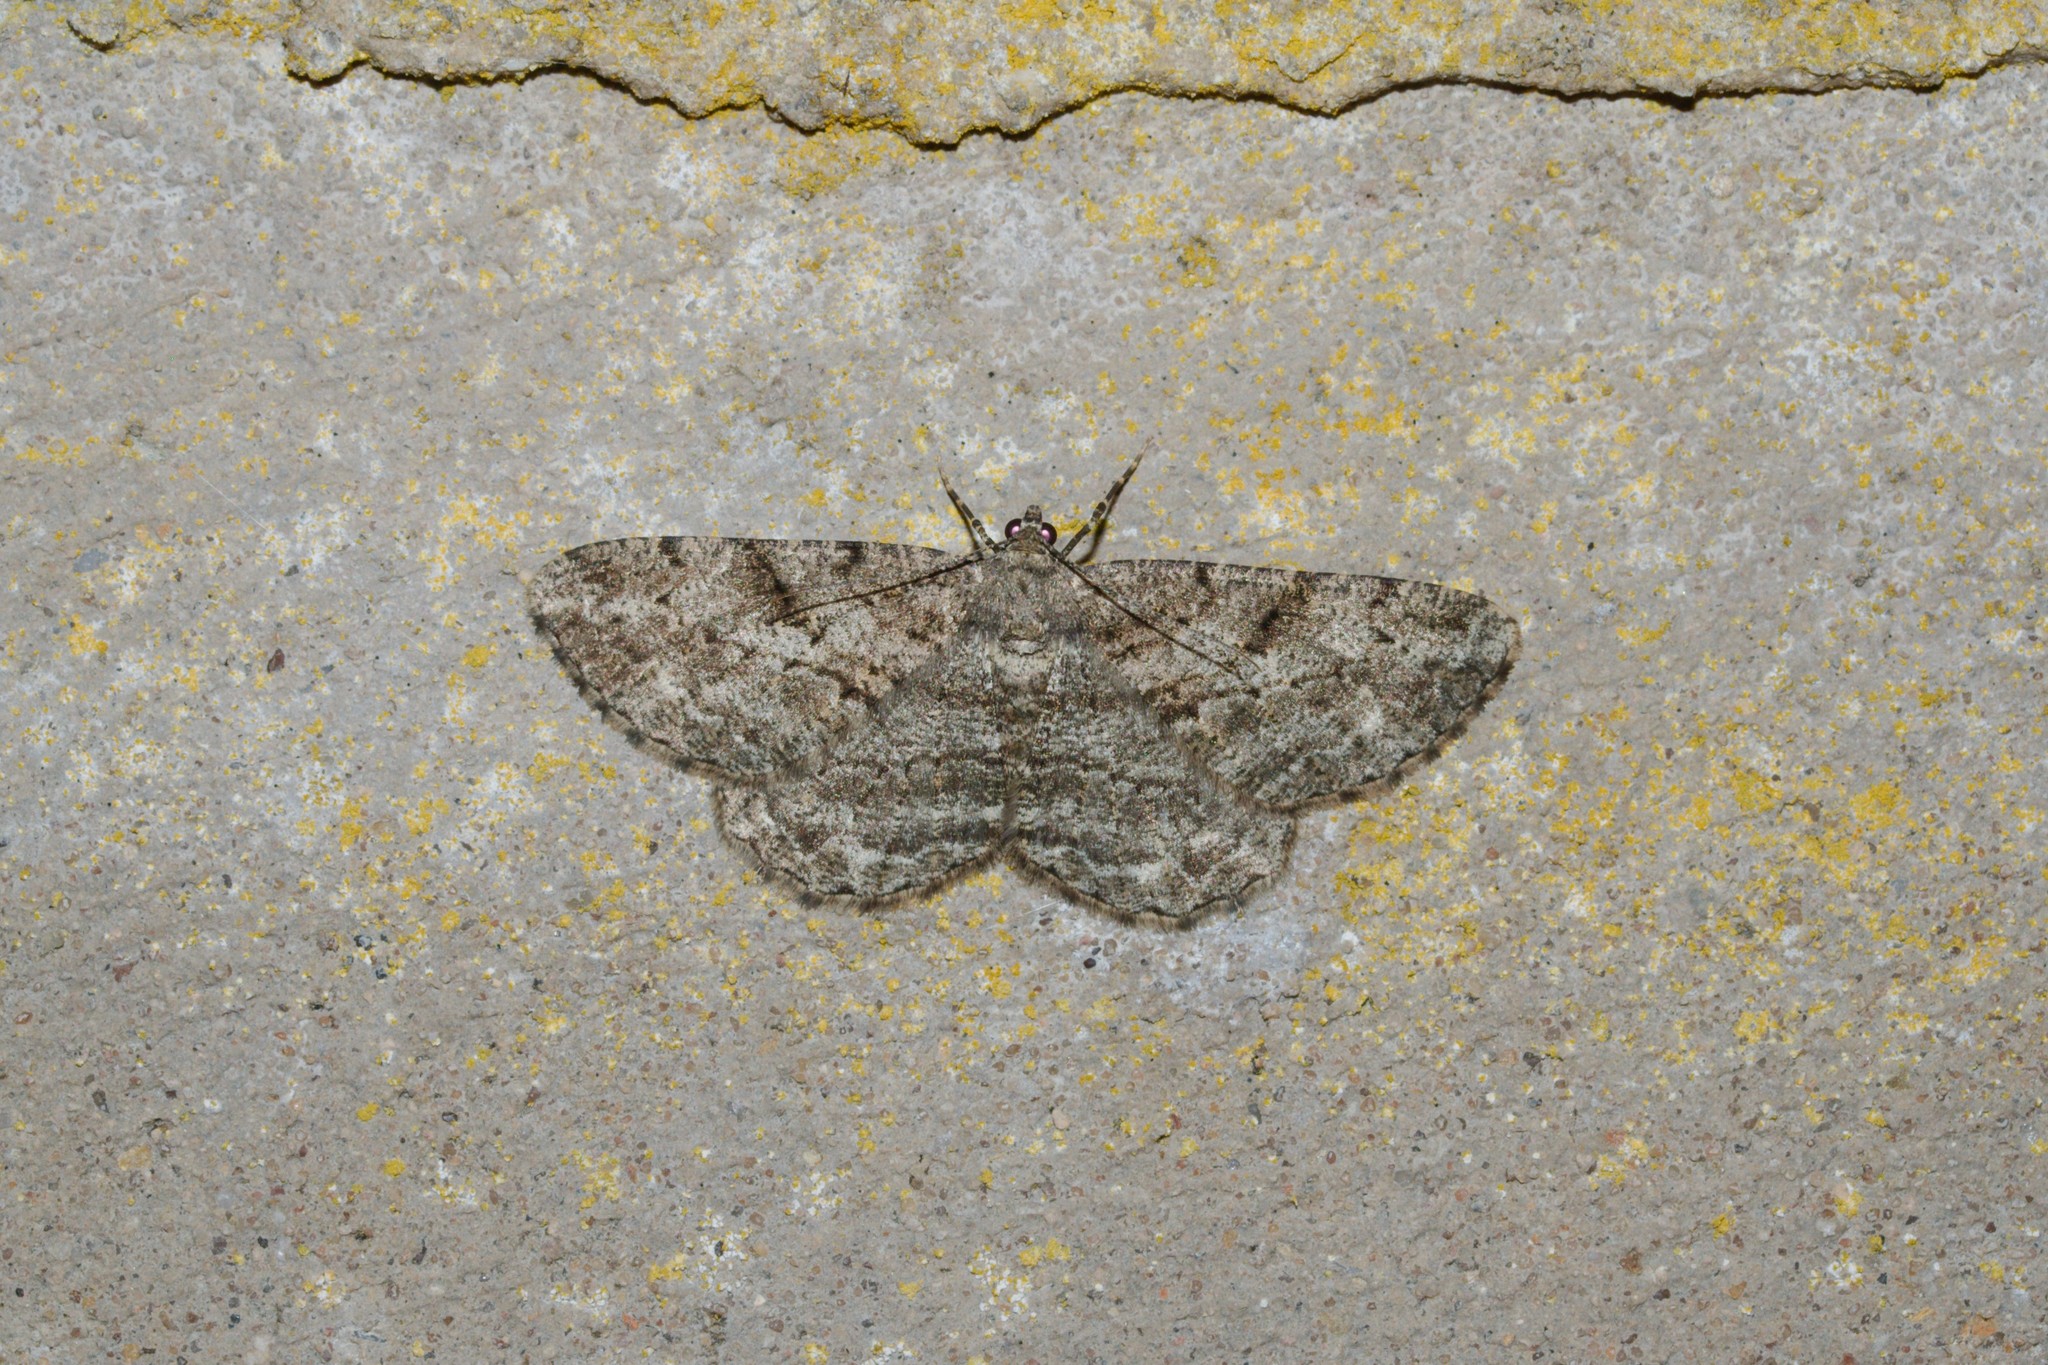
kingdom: Animalia
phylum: Arthropoda
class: Insecta
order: Lepidoptera
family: Geometridae
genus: Peribatodes
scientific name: Peribatodes rhomboidaria
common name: Willow beauty
